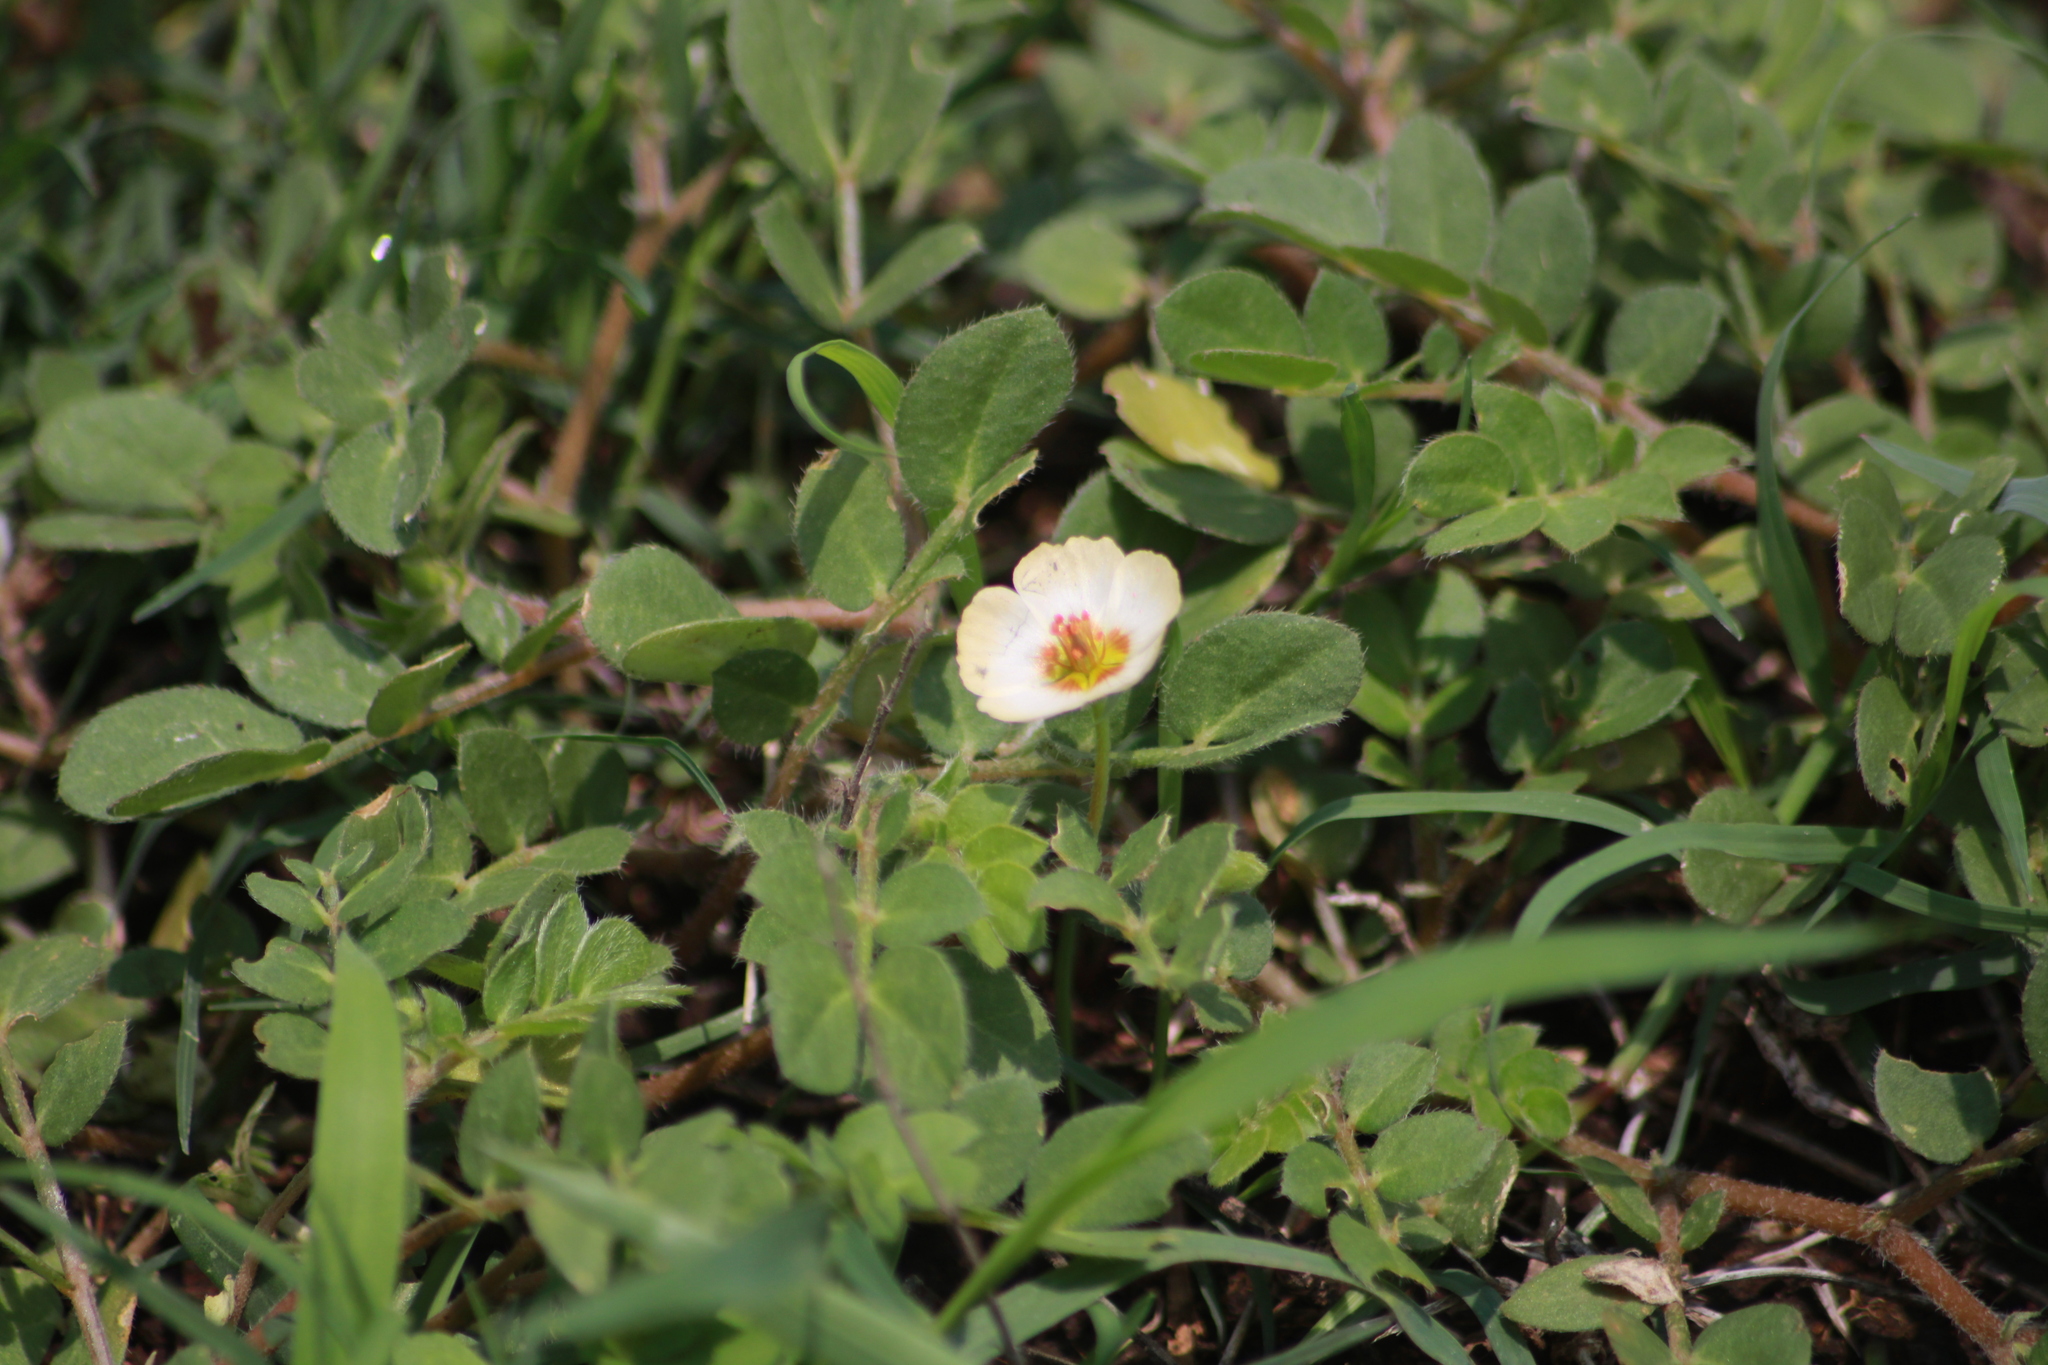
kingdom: Plantae
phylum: Tracheophyta
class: Magnoliopsida
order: Zygophyllales
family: Zygophyllaceae
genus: Kallstroemia
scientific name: Kallstroemia rosei
